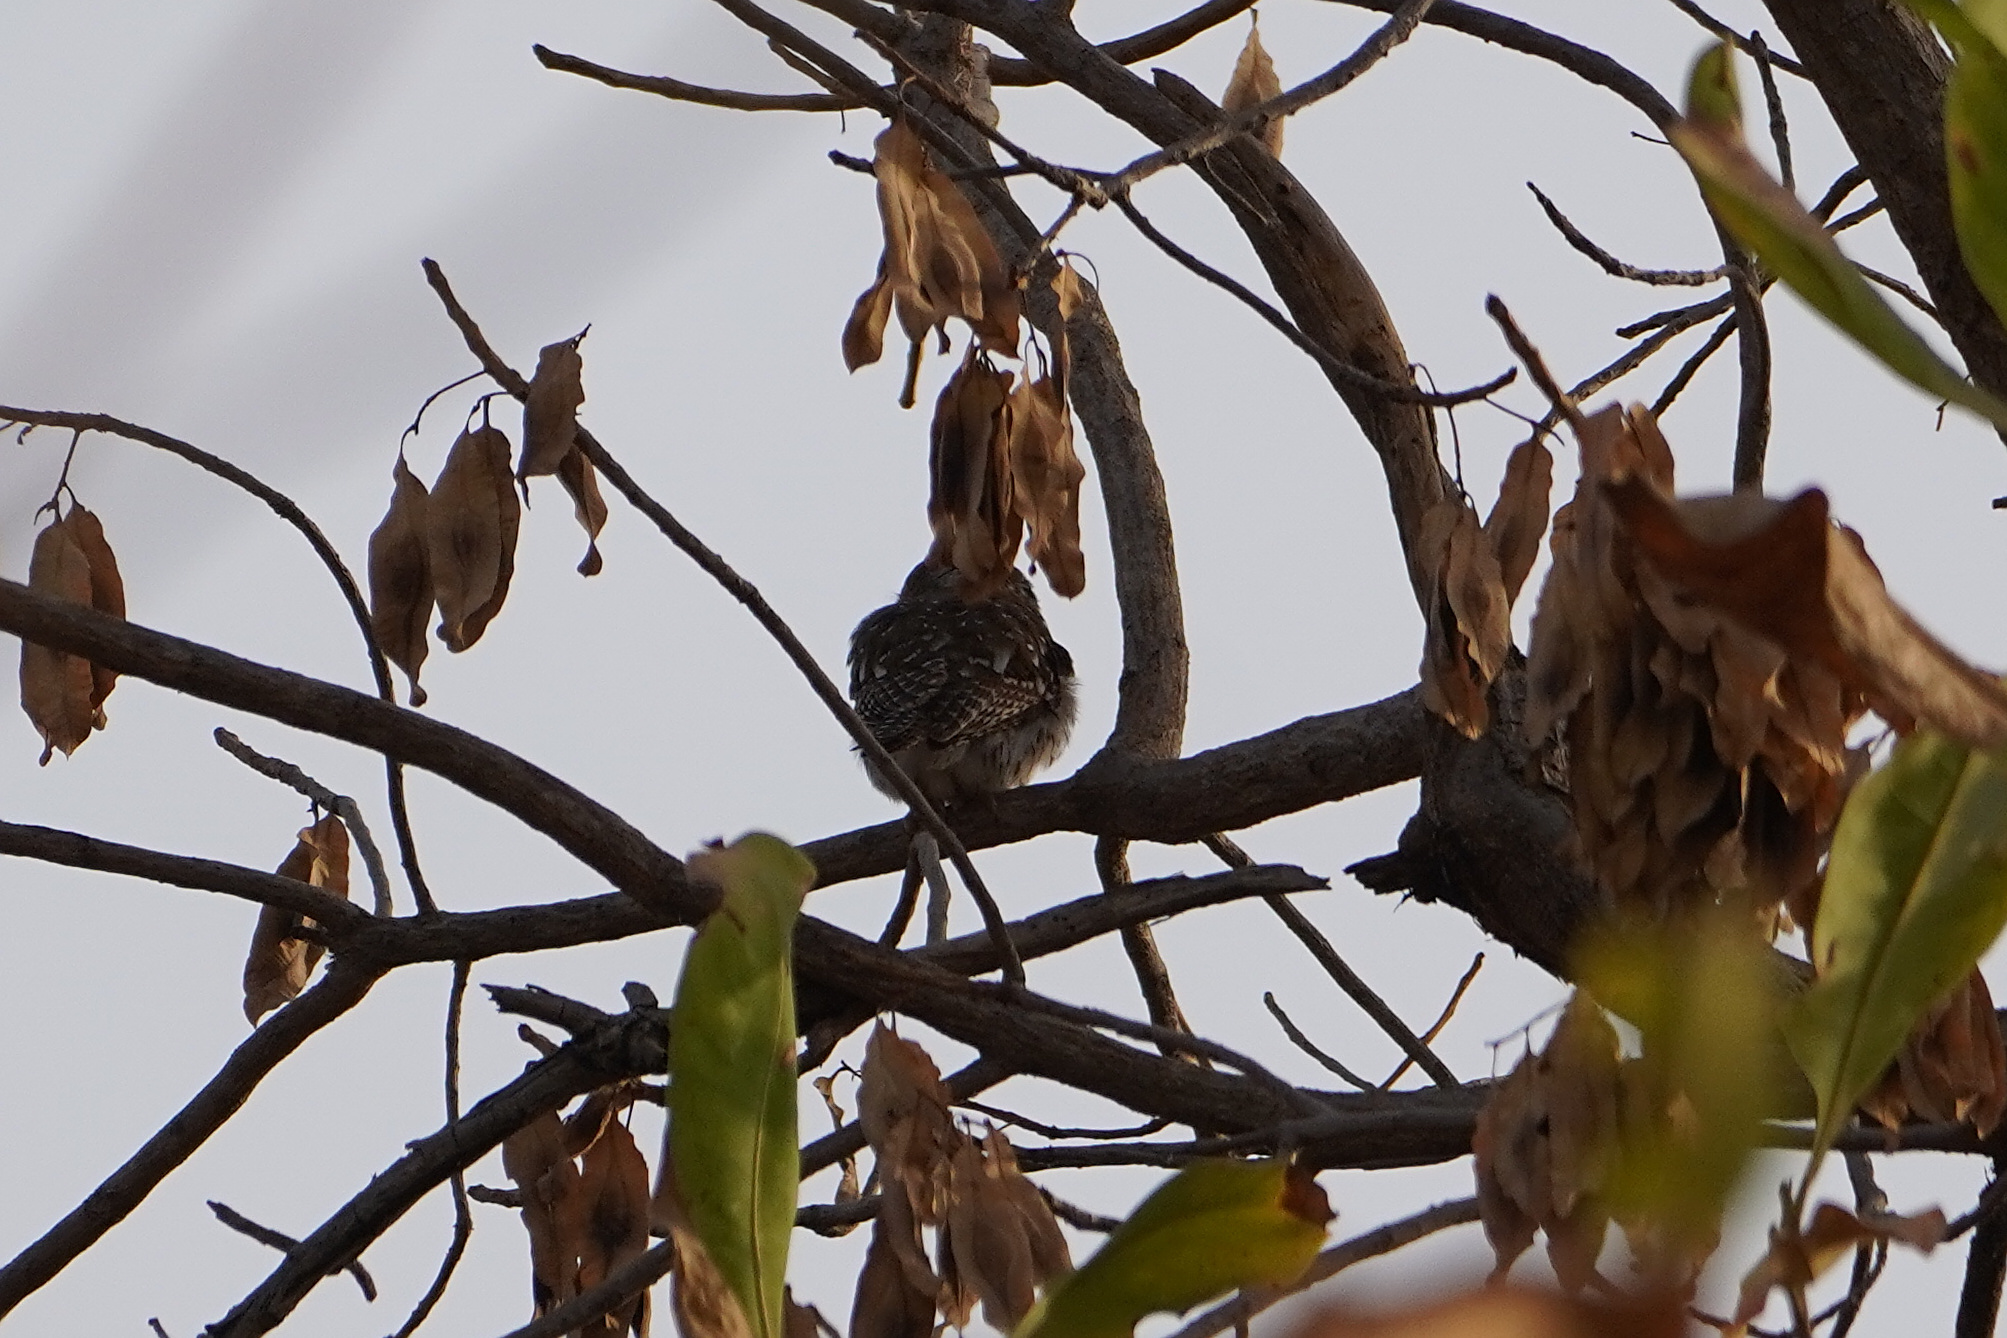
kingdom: Animalia
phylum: Chordata
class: Aves
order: Strigiformes
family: Strigidae
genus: Glaucidium
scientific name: Glaucidium perlatum
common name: Pearl-spotted owlet
